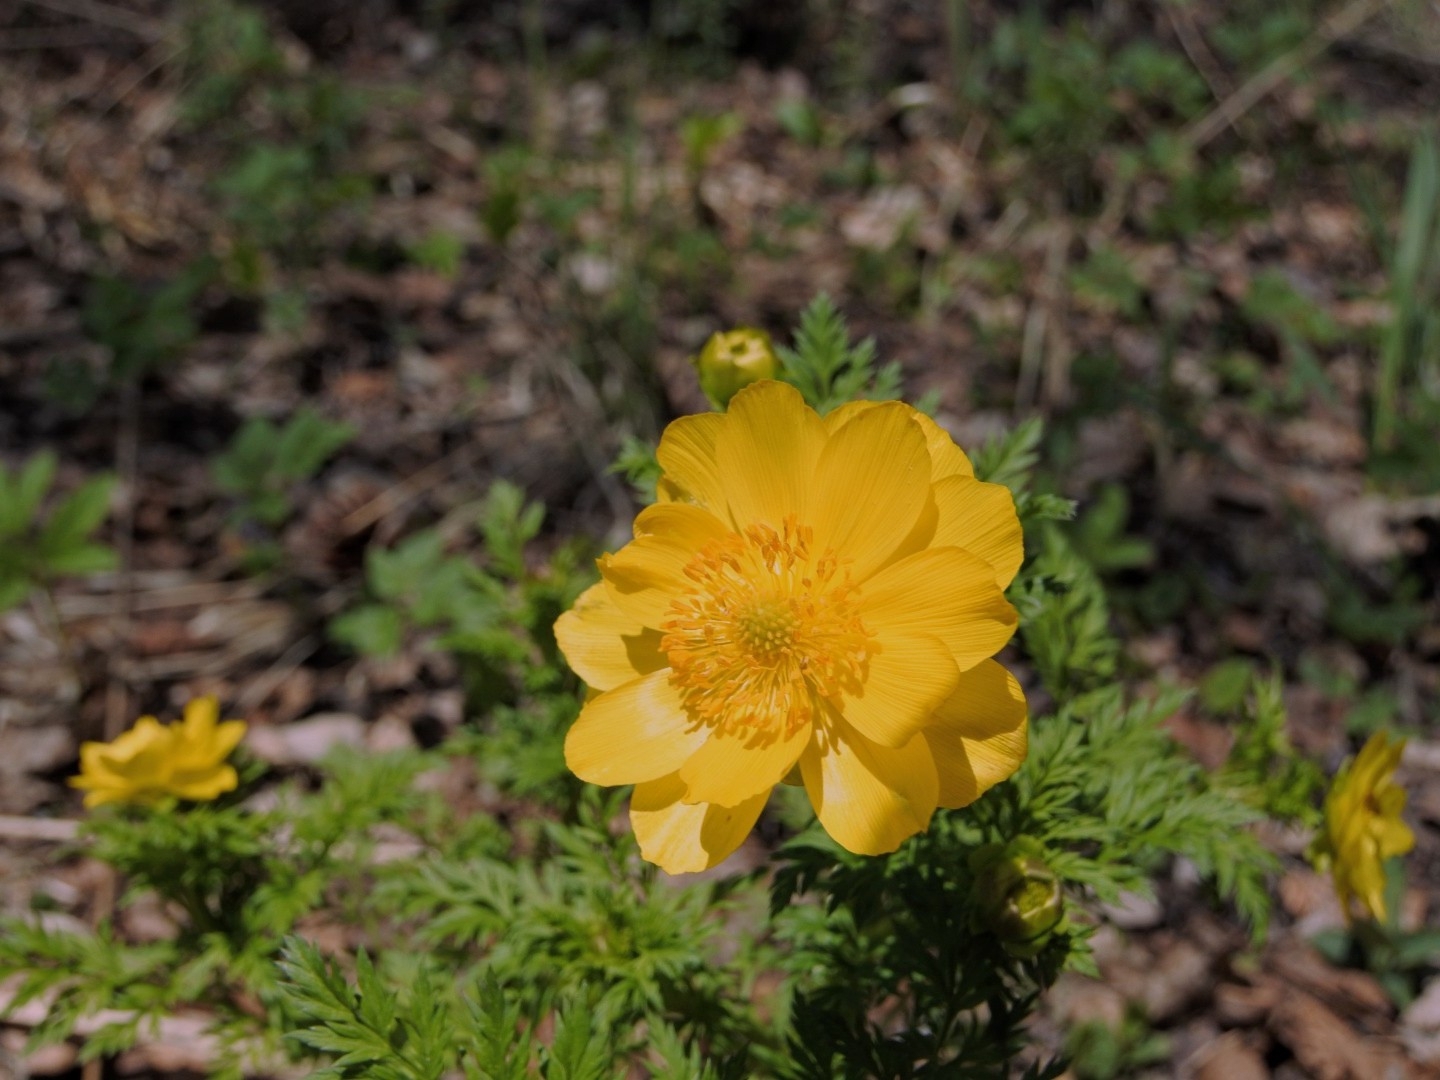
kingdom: Plantae
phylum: Tracheophyta
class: Magnoliopsida
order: Ranunculales
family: Ranunculaceae
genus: Adonis
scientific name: Adonis
